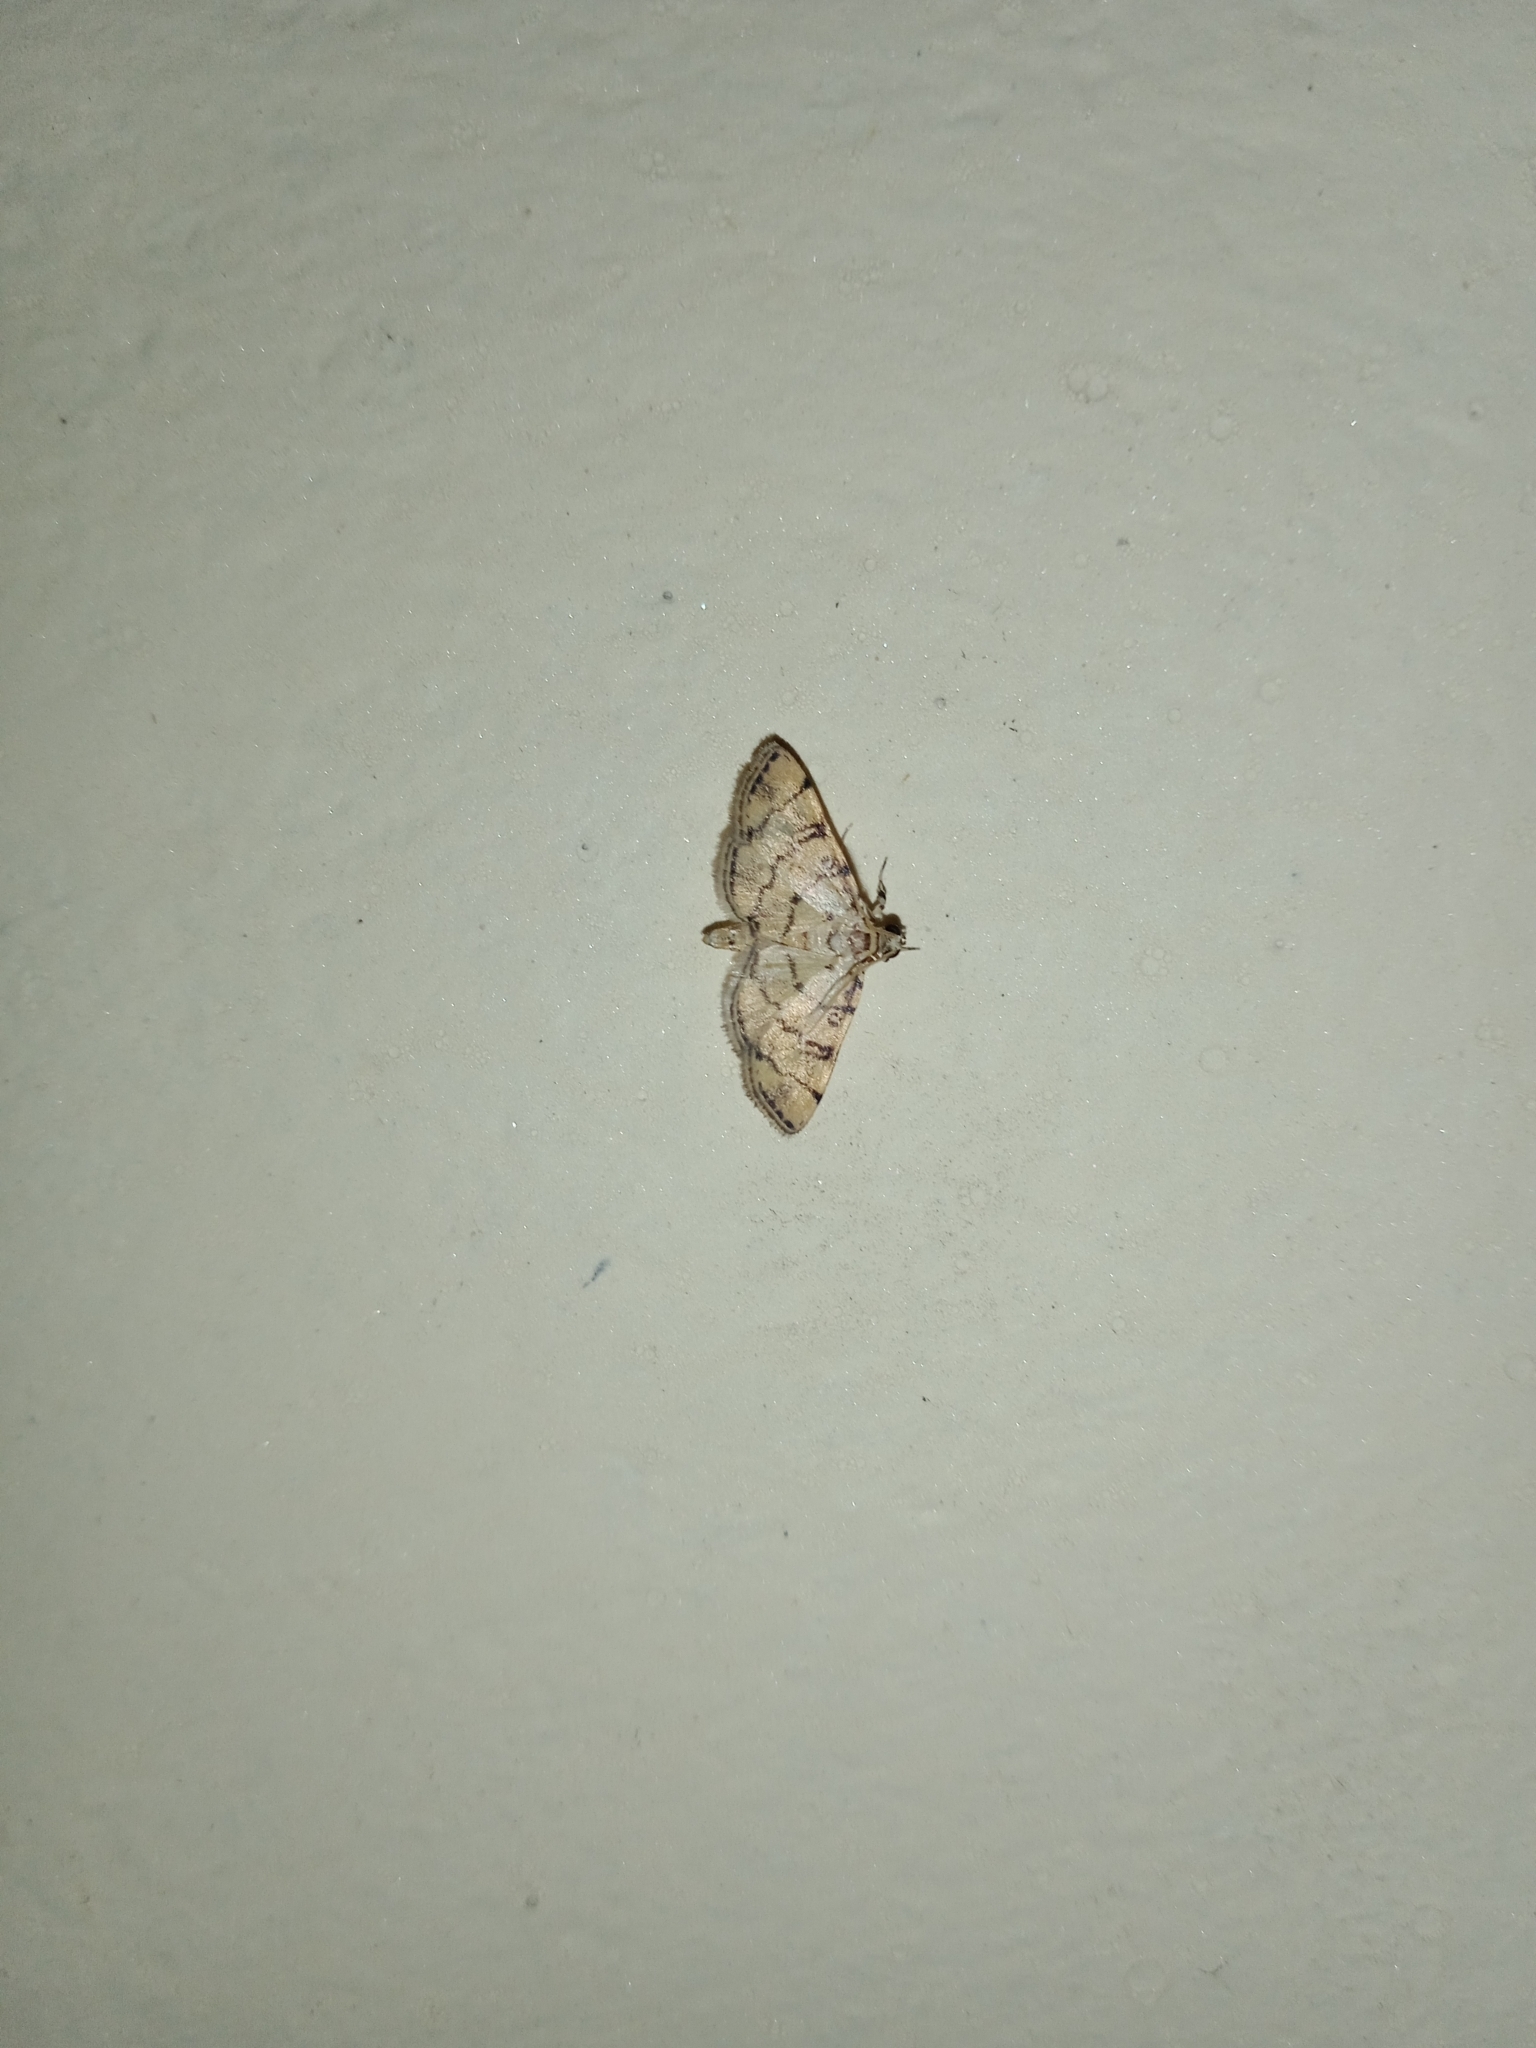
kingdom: Animalia
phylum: Arthropoda
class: Insecta
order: Lepidoptera
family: Crambidae
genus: Lamprosema
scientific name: Lamprosema tampiusalis
